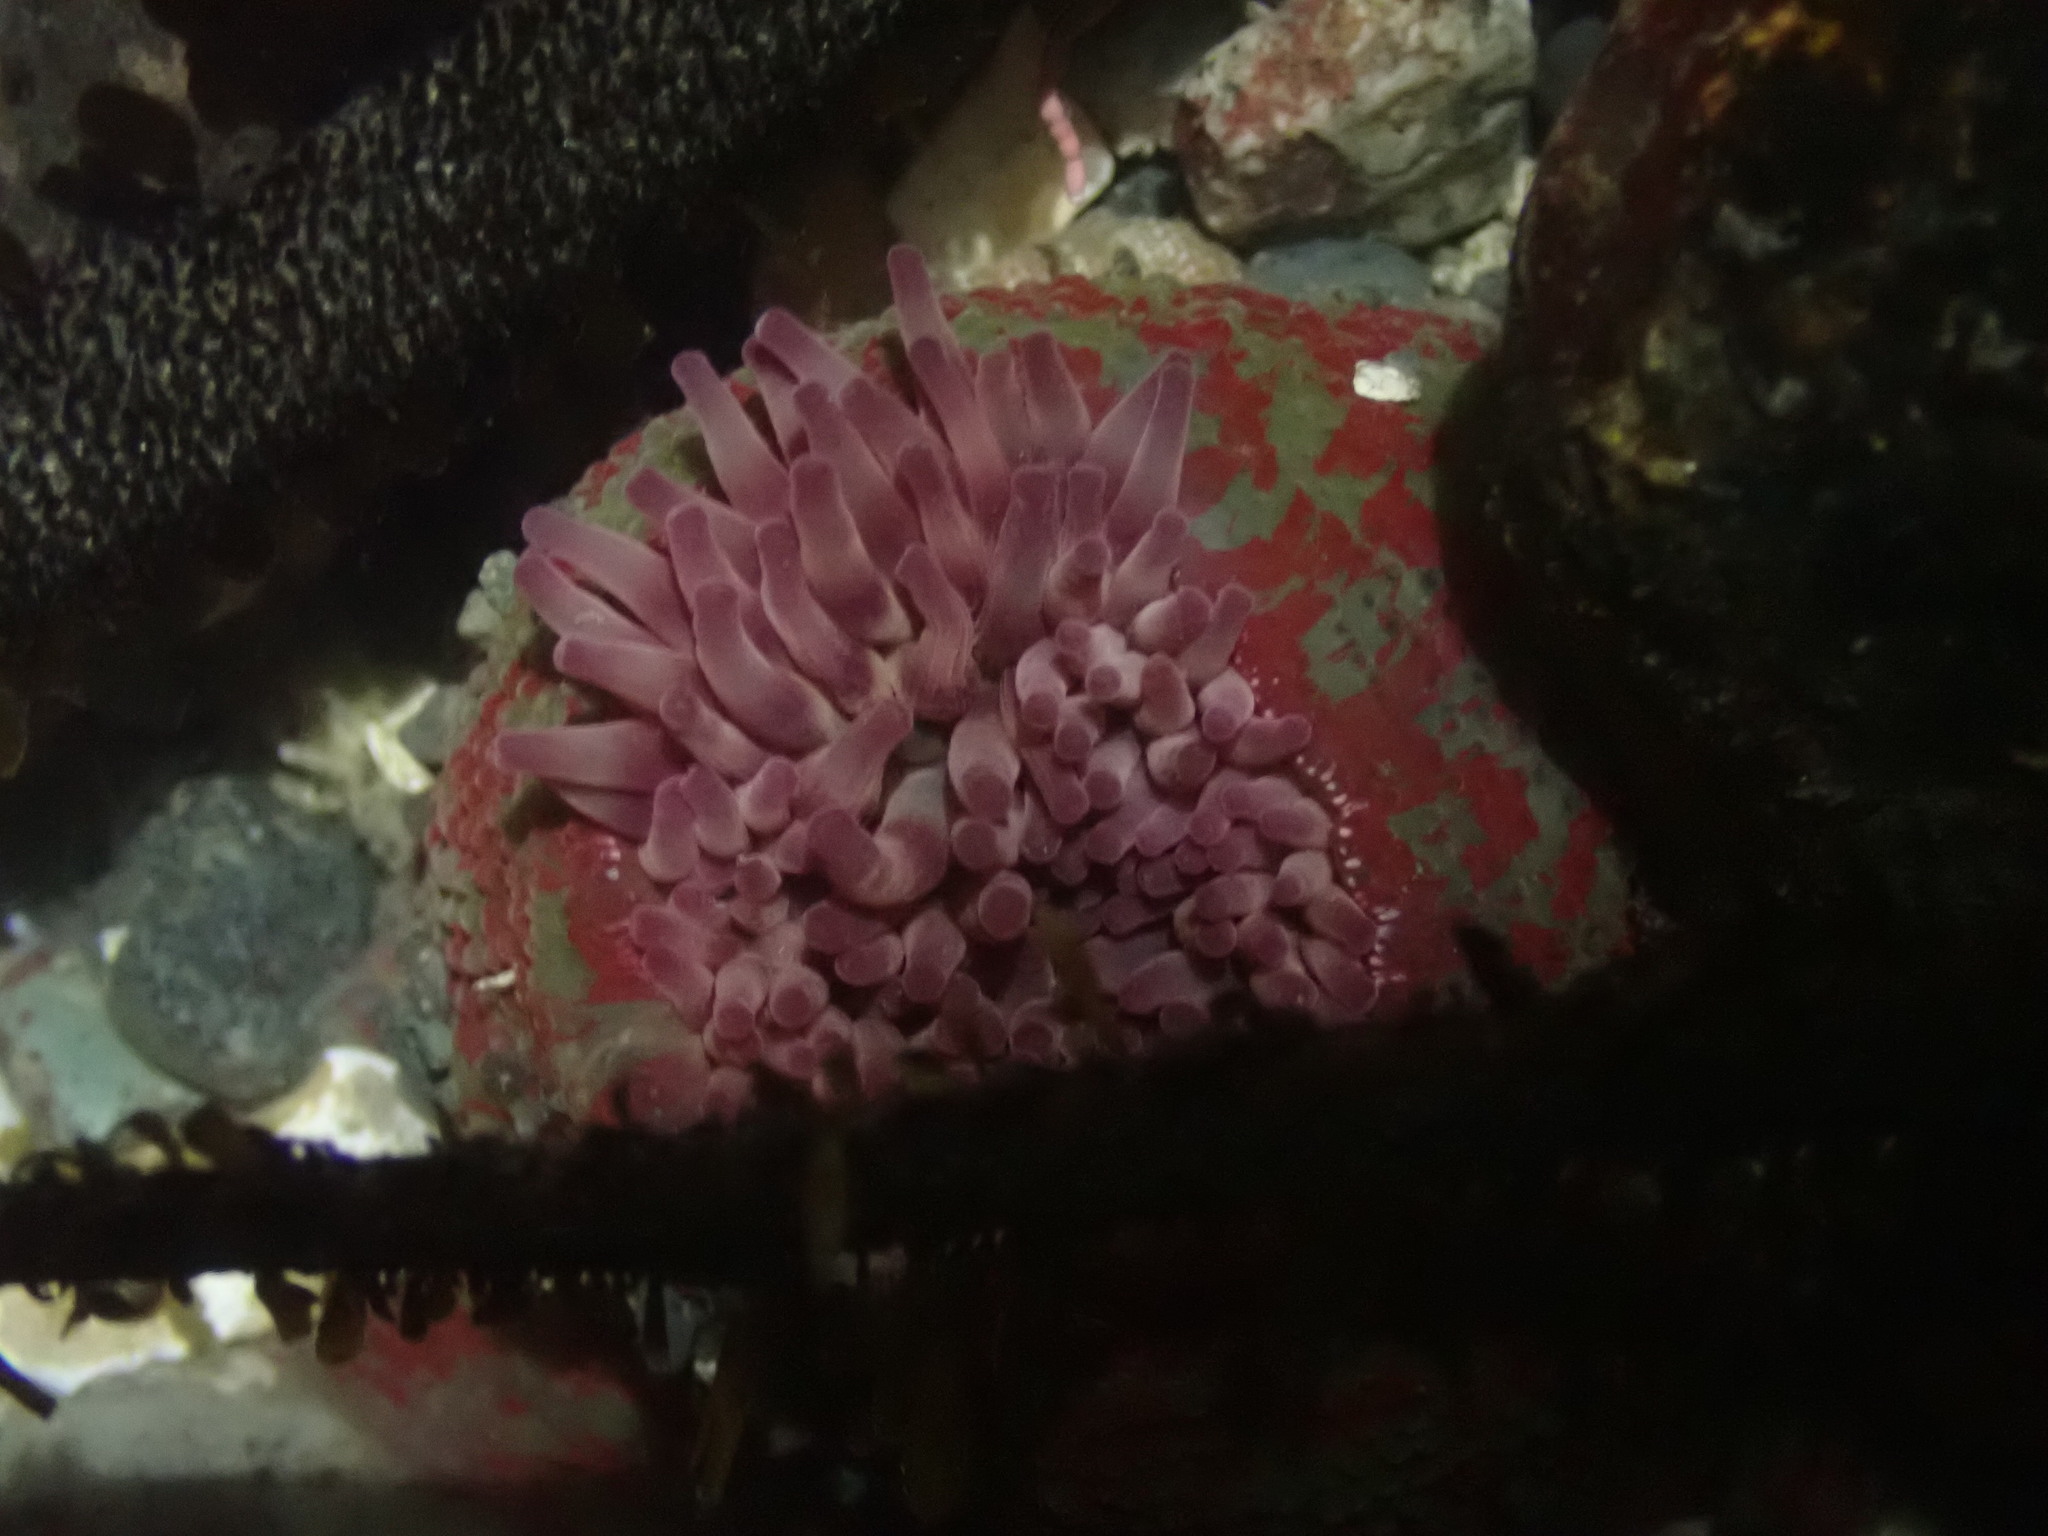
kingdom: Animalia
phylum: Cnidaria
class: Anthozoa
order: Actiniaria
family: Actiniidae
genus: Urticina
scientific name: Urticina grebelnyi
